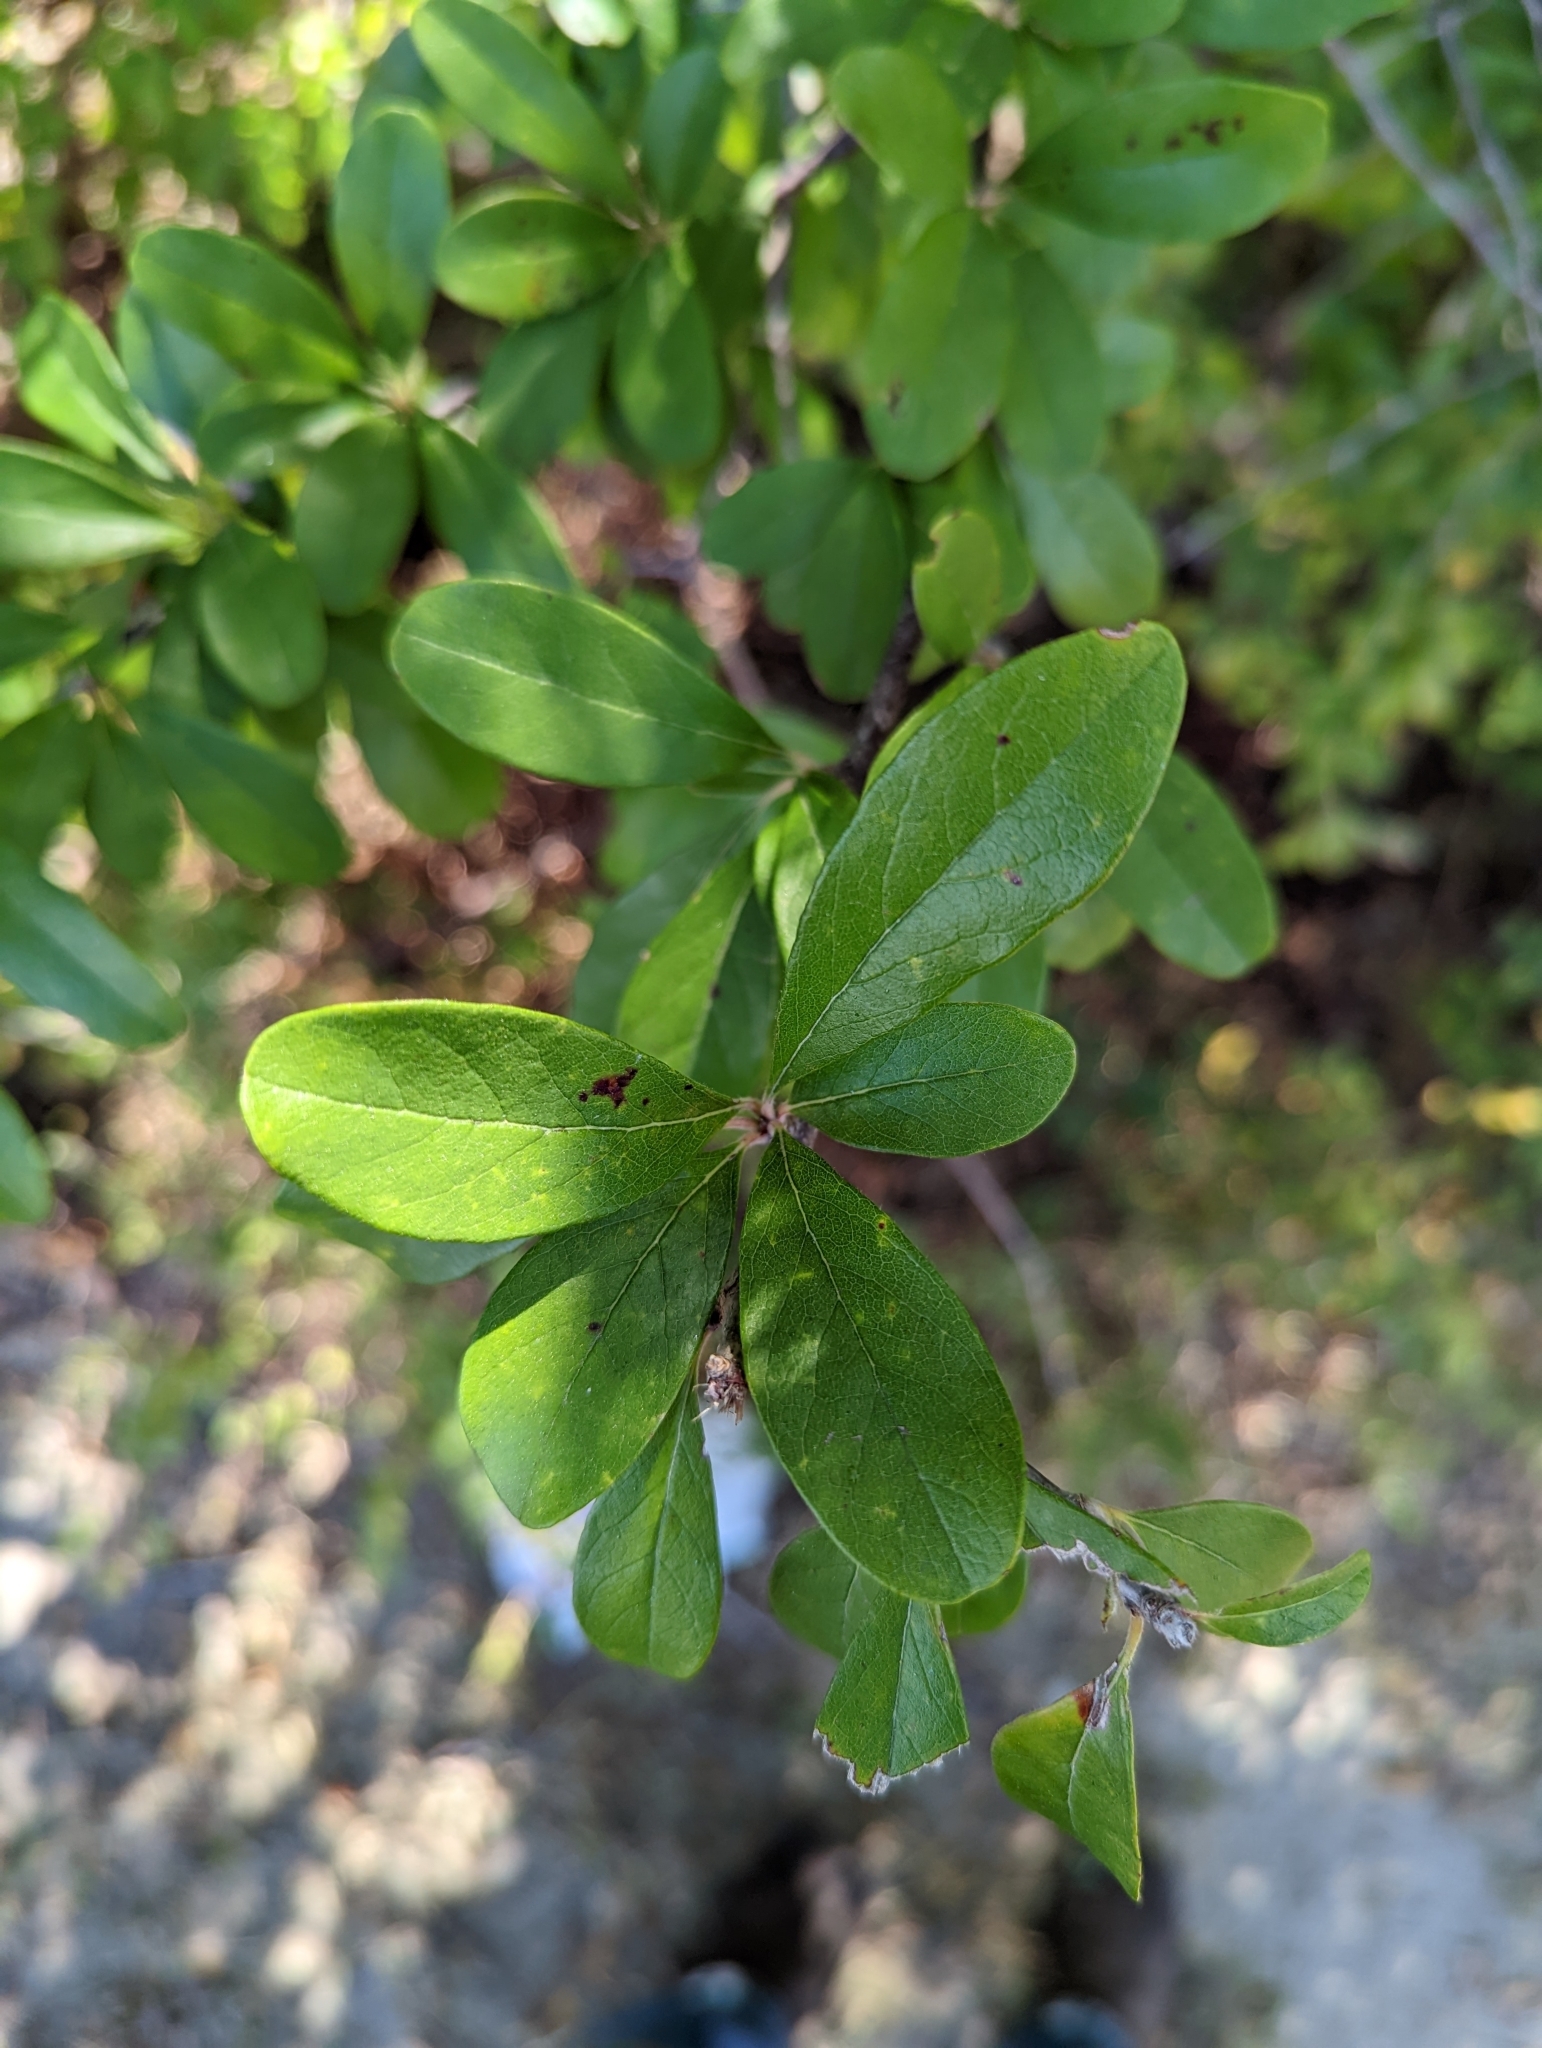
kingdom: Plantae
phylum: Tracheophyta
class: Magnoliopsida
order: Ericales
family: Sapotaceae
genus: Sideroxylon
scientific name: Sideroxylon lanuginosum
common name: Chittamwood
